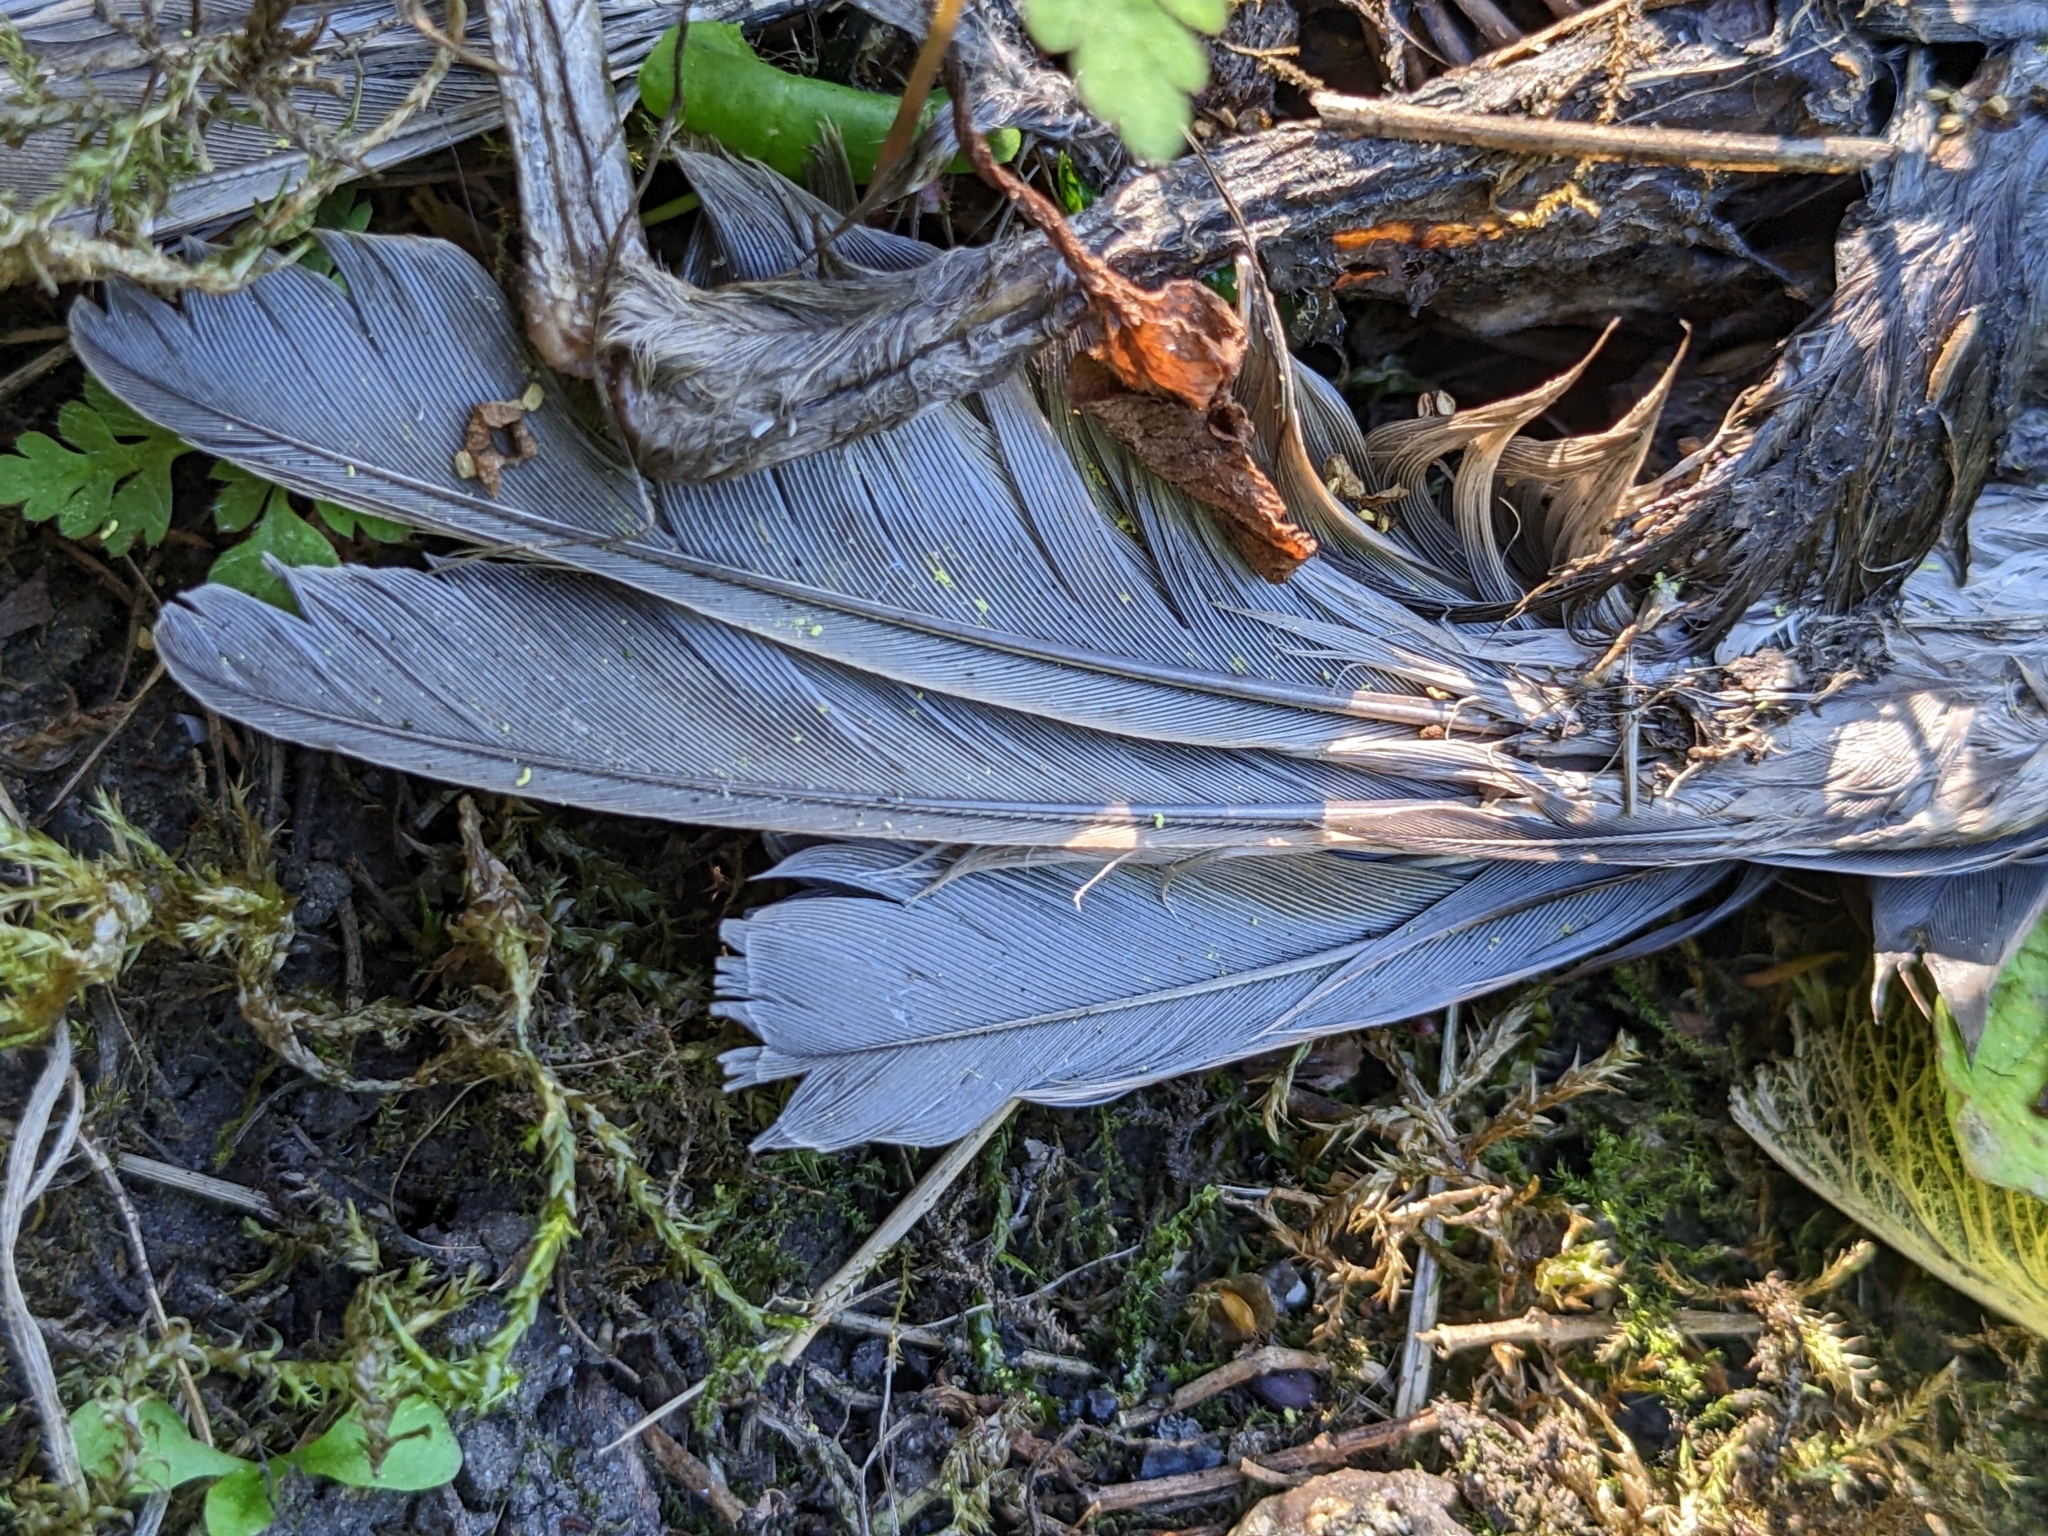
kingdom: Animalia
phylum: Chordata
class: Aves
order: Passeriformes
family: Sturnidae
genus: Sturnus
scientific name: Sturnus vulgaris
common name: Common starling
